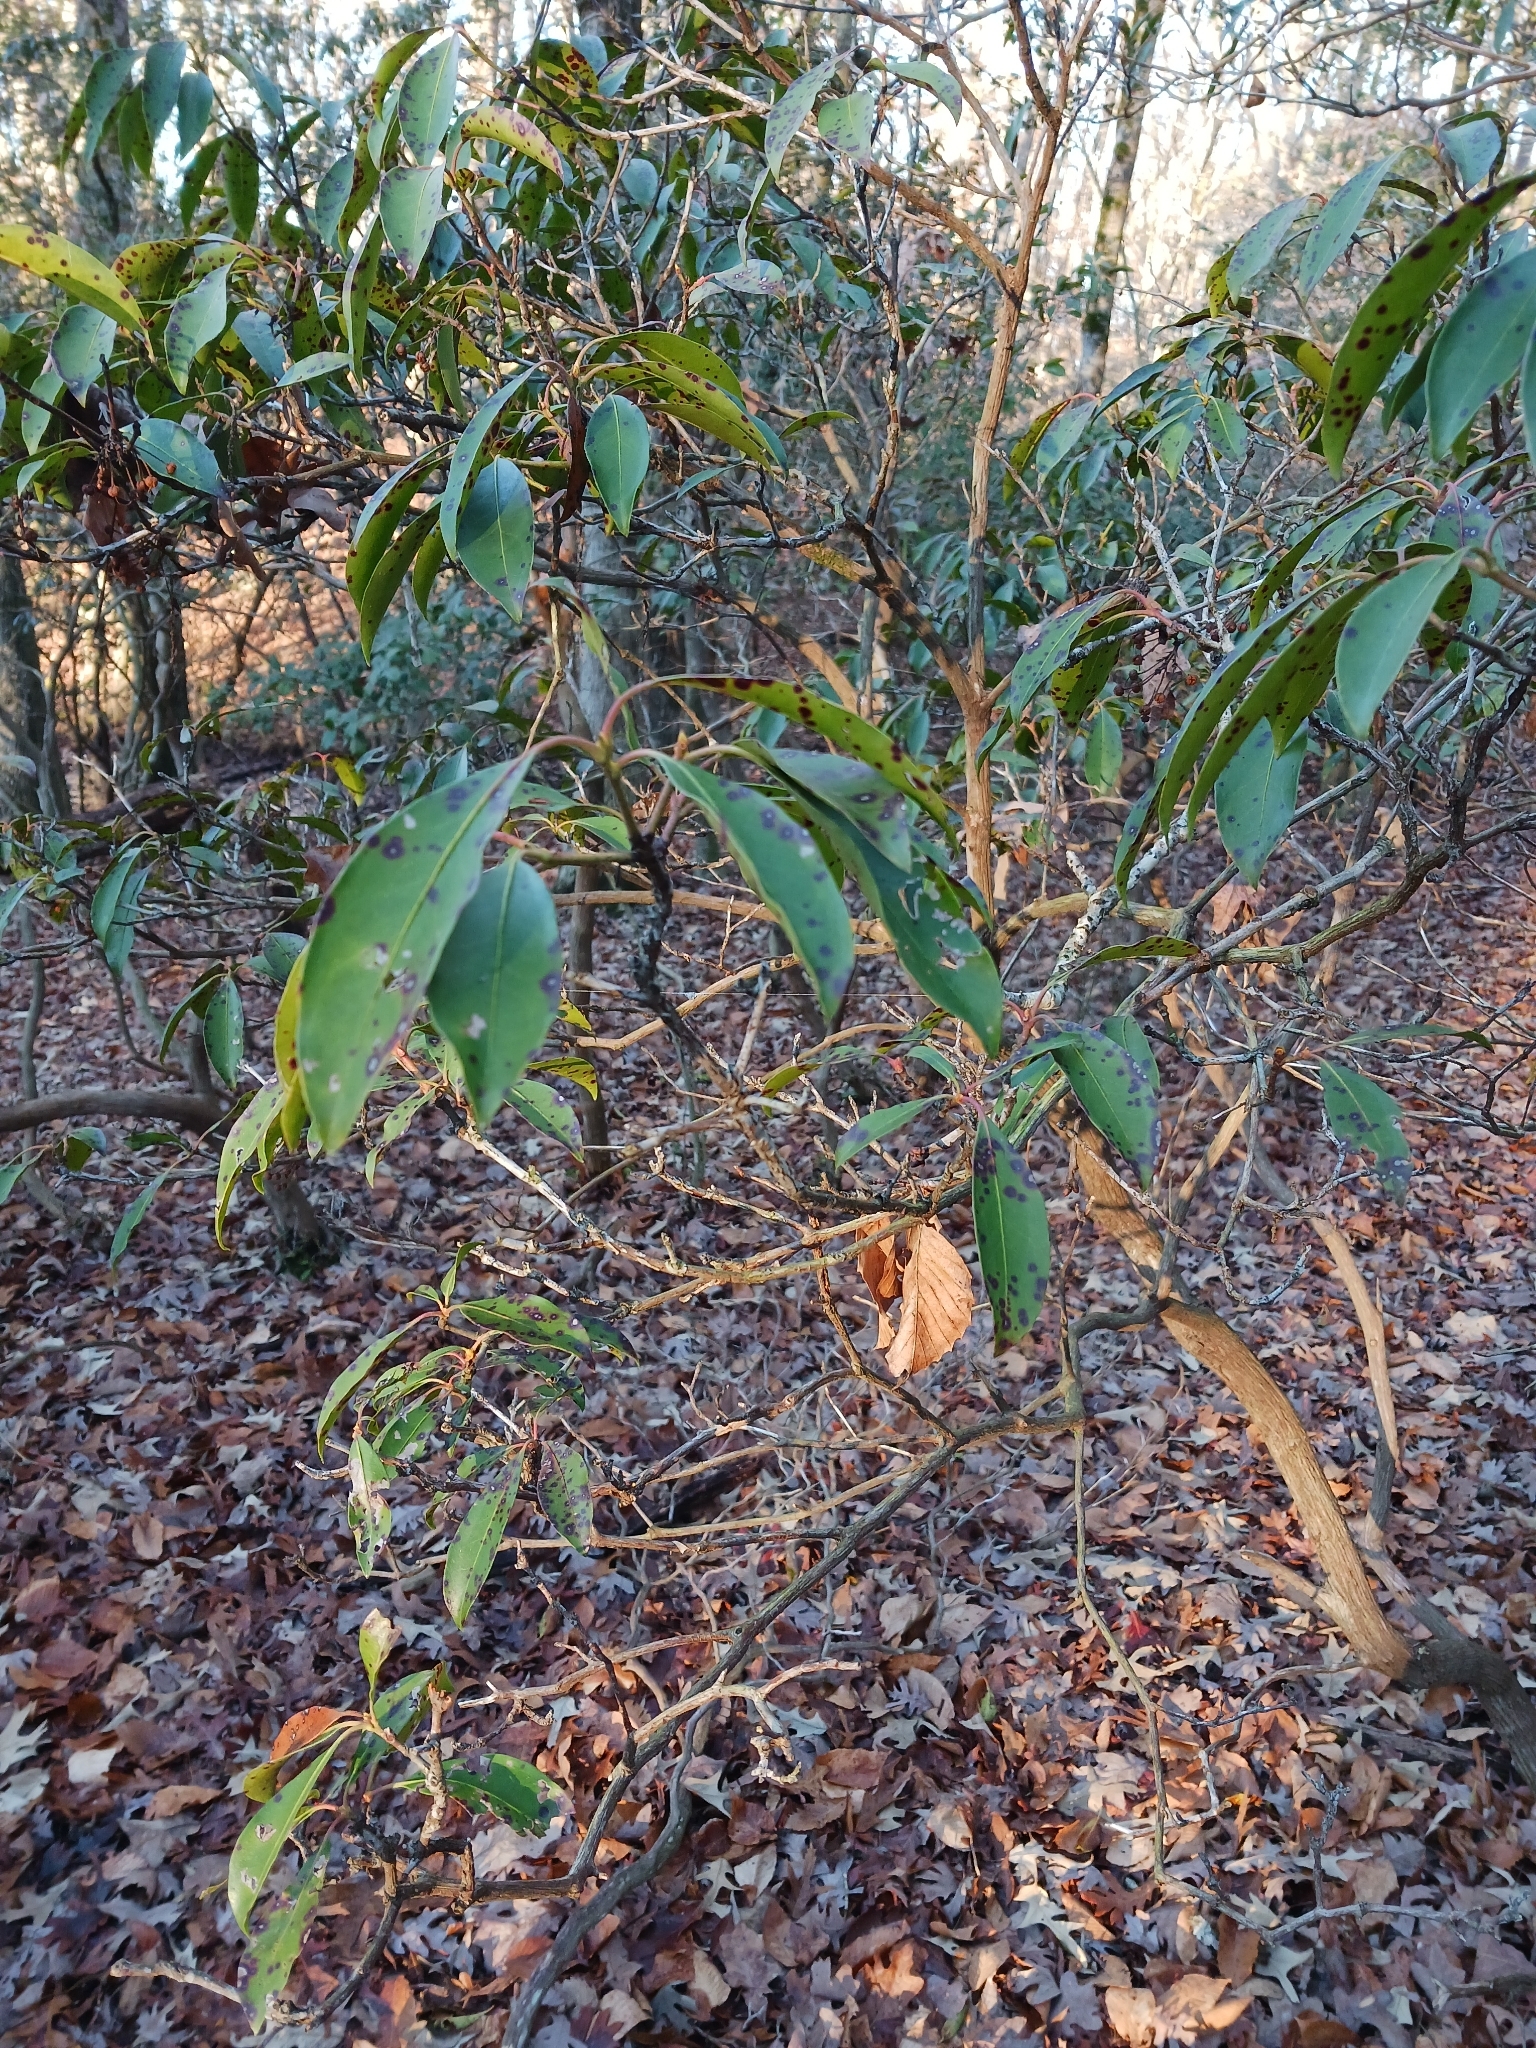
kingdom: Plantae
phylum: Tracheophyta
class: Magnoliopsida
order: Ericales
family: Ericaceae
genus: Kalmia
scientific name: Kalmia latifolia
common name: Mountain-laurel
